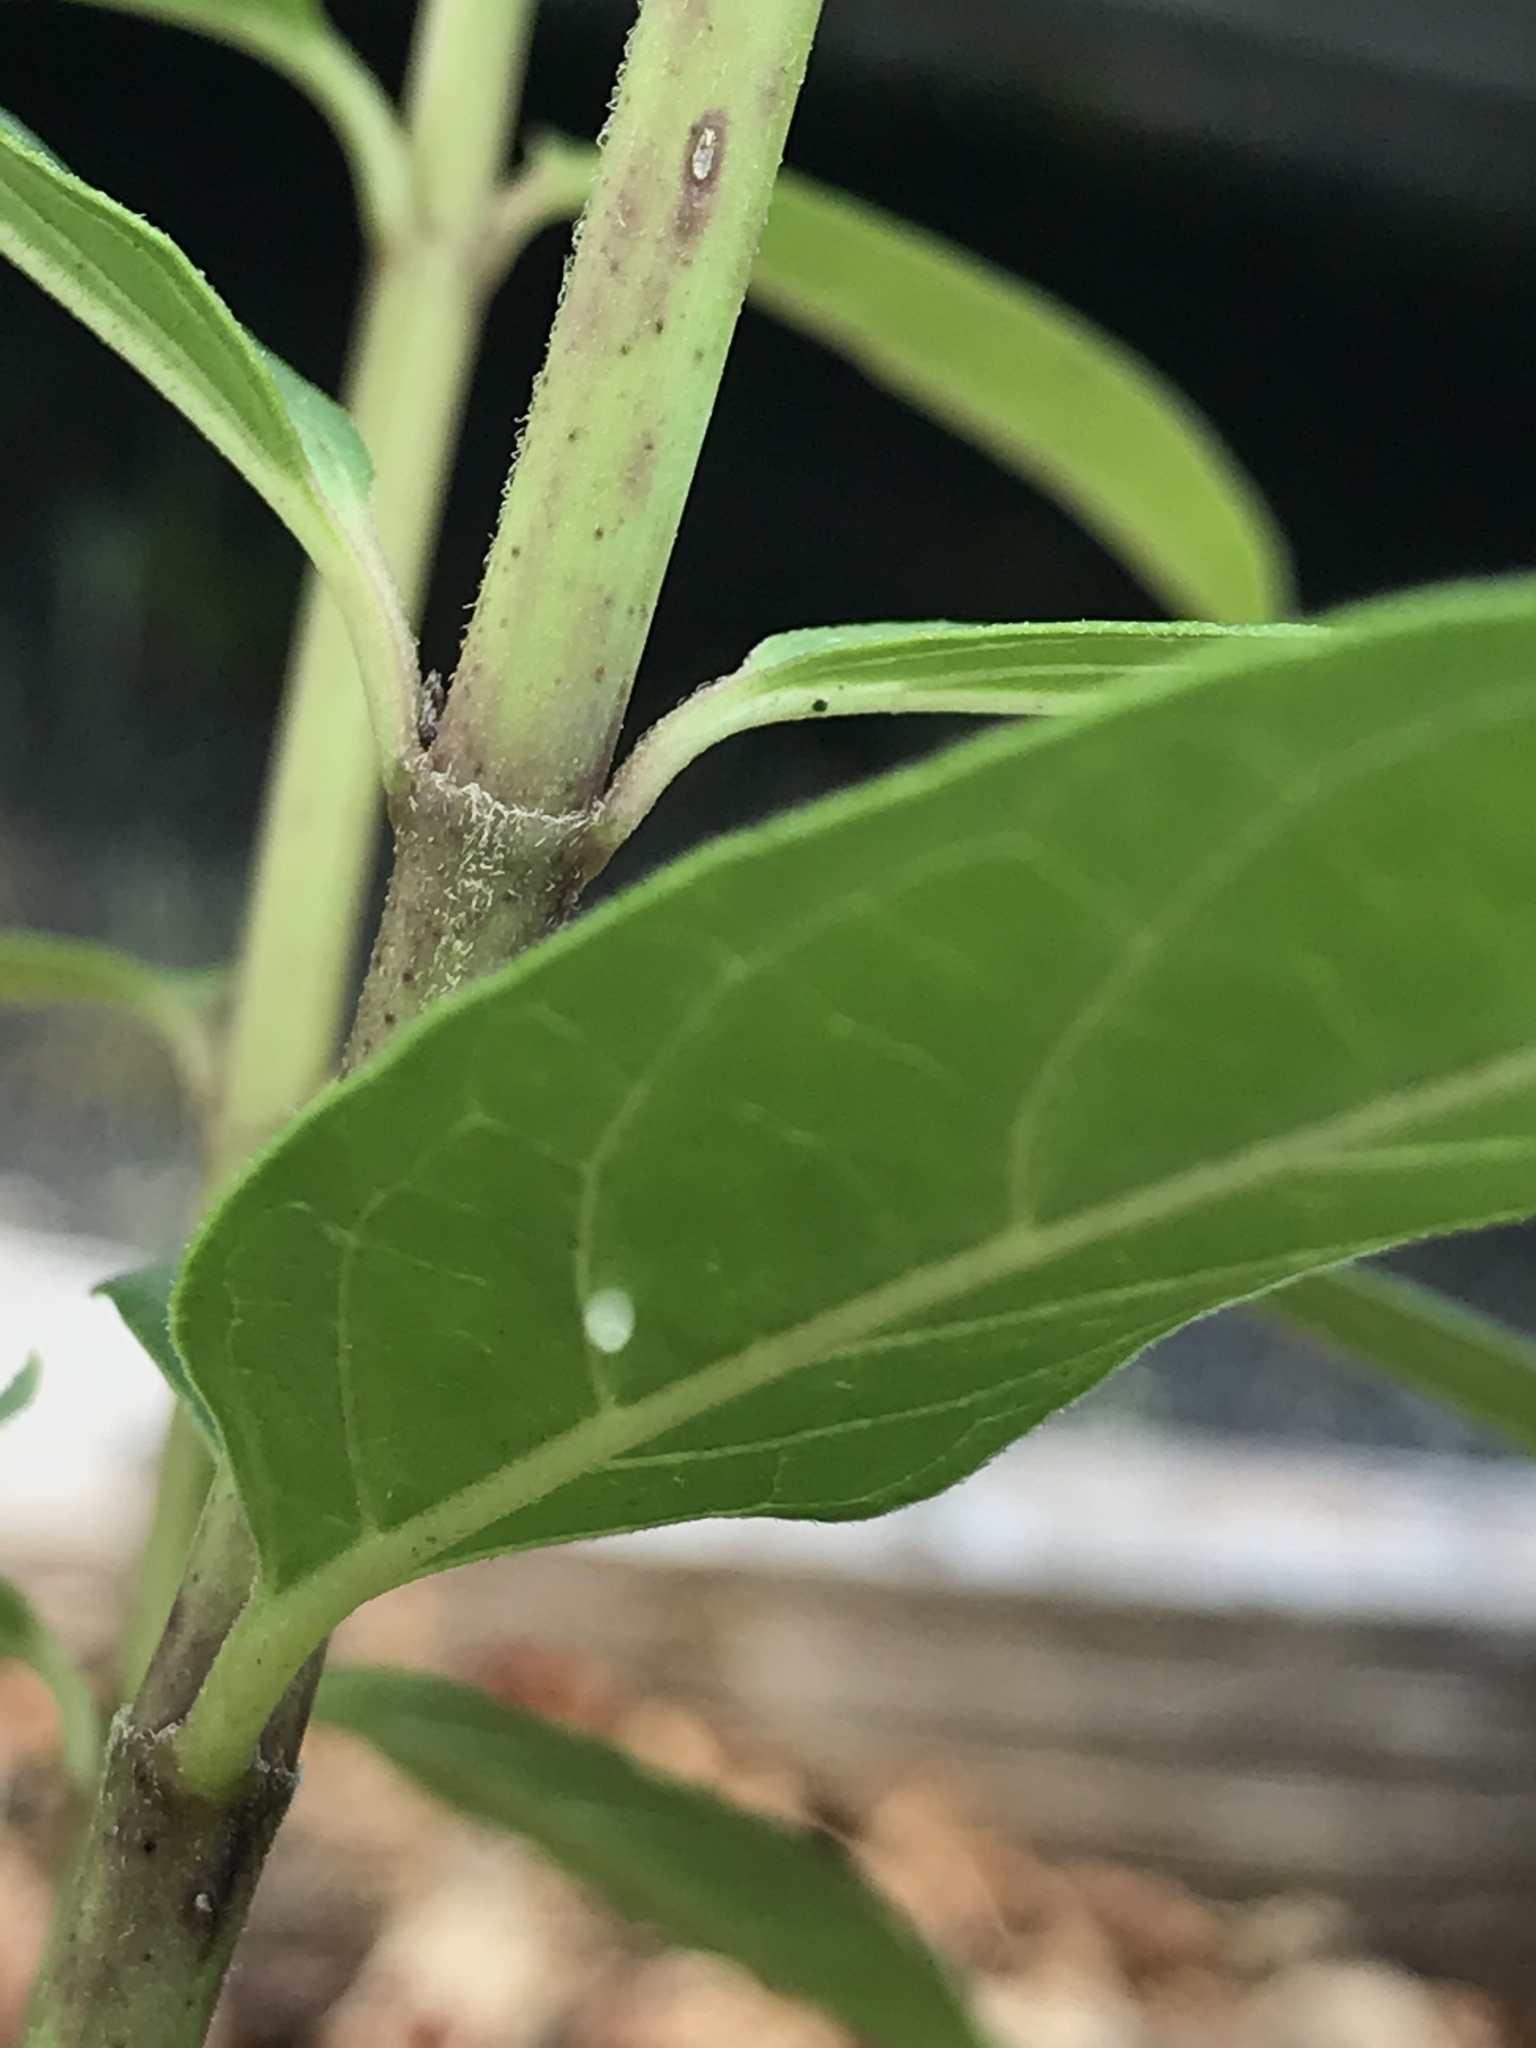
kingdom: Animalia
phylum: Arthropoda
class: Insecta
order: Lepidoptera
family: Nymphalidae
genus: Danaus
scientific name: Danaus plexippus
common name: Monarch
